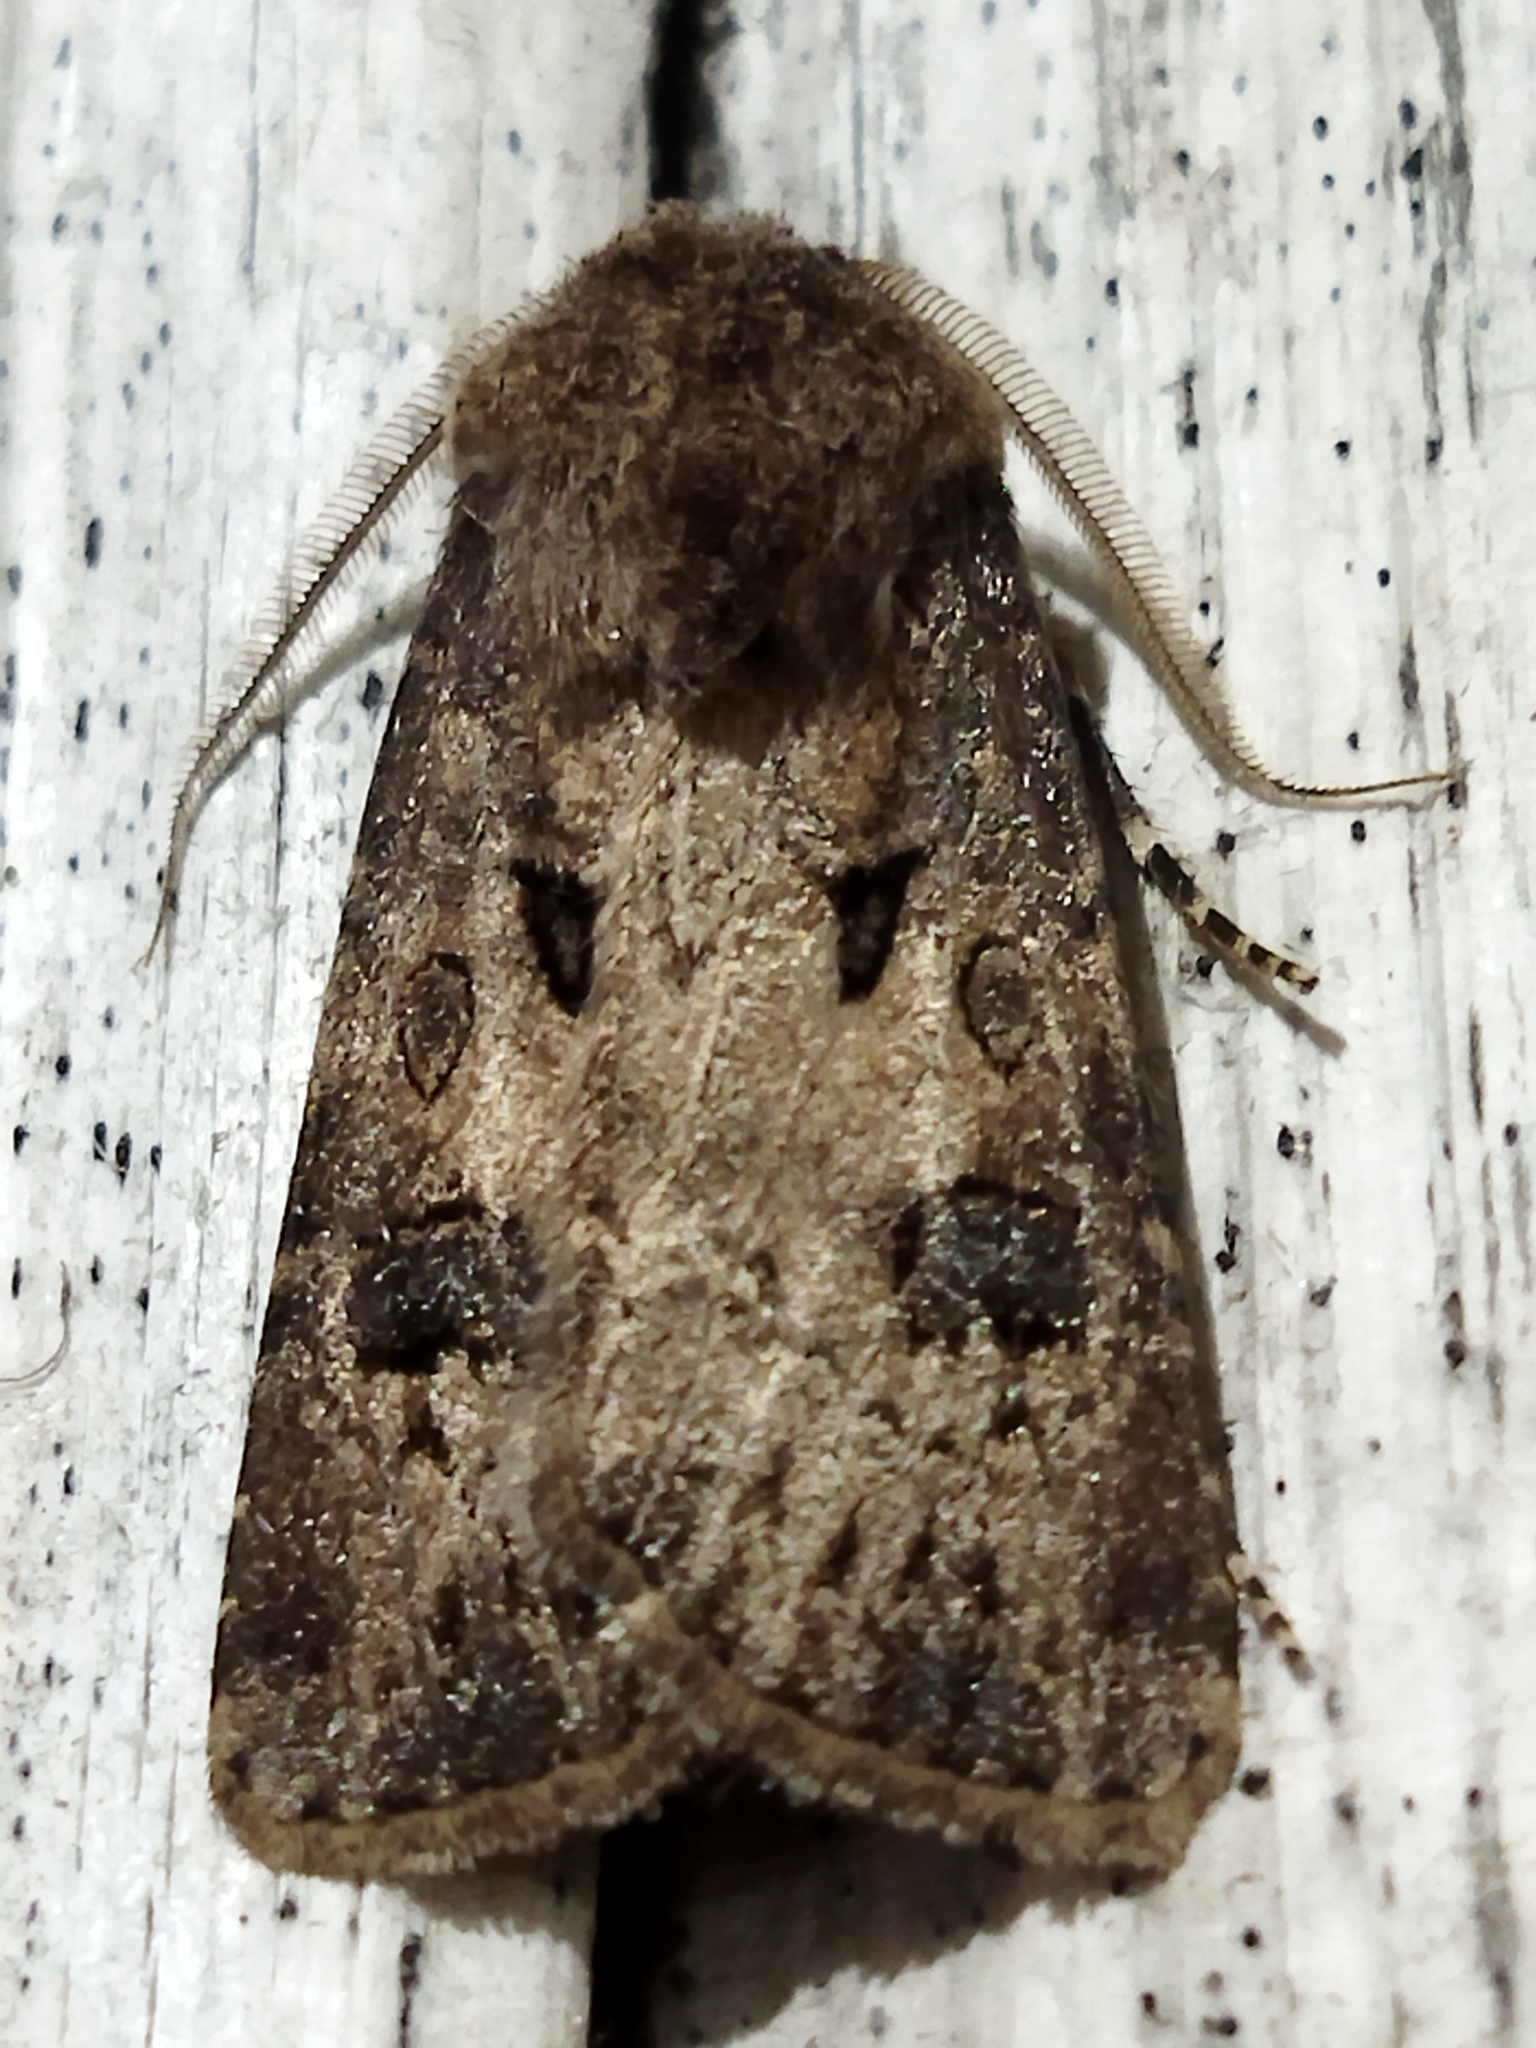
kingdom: Animalia
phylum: Arthropoda
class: Insecta
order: Lepidoptera
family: Noctuidae
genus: Agrotis
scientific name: Agrotis bigramma
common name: Great dart
